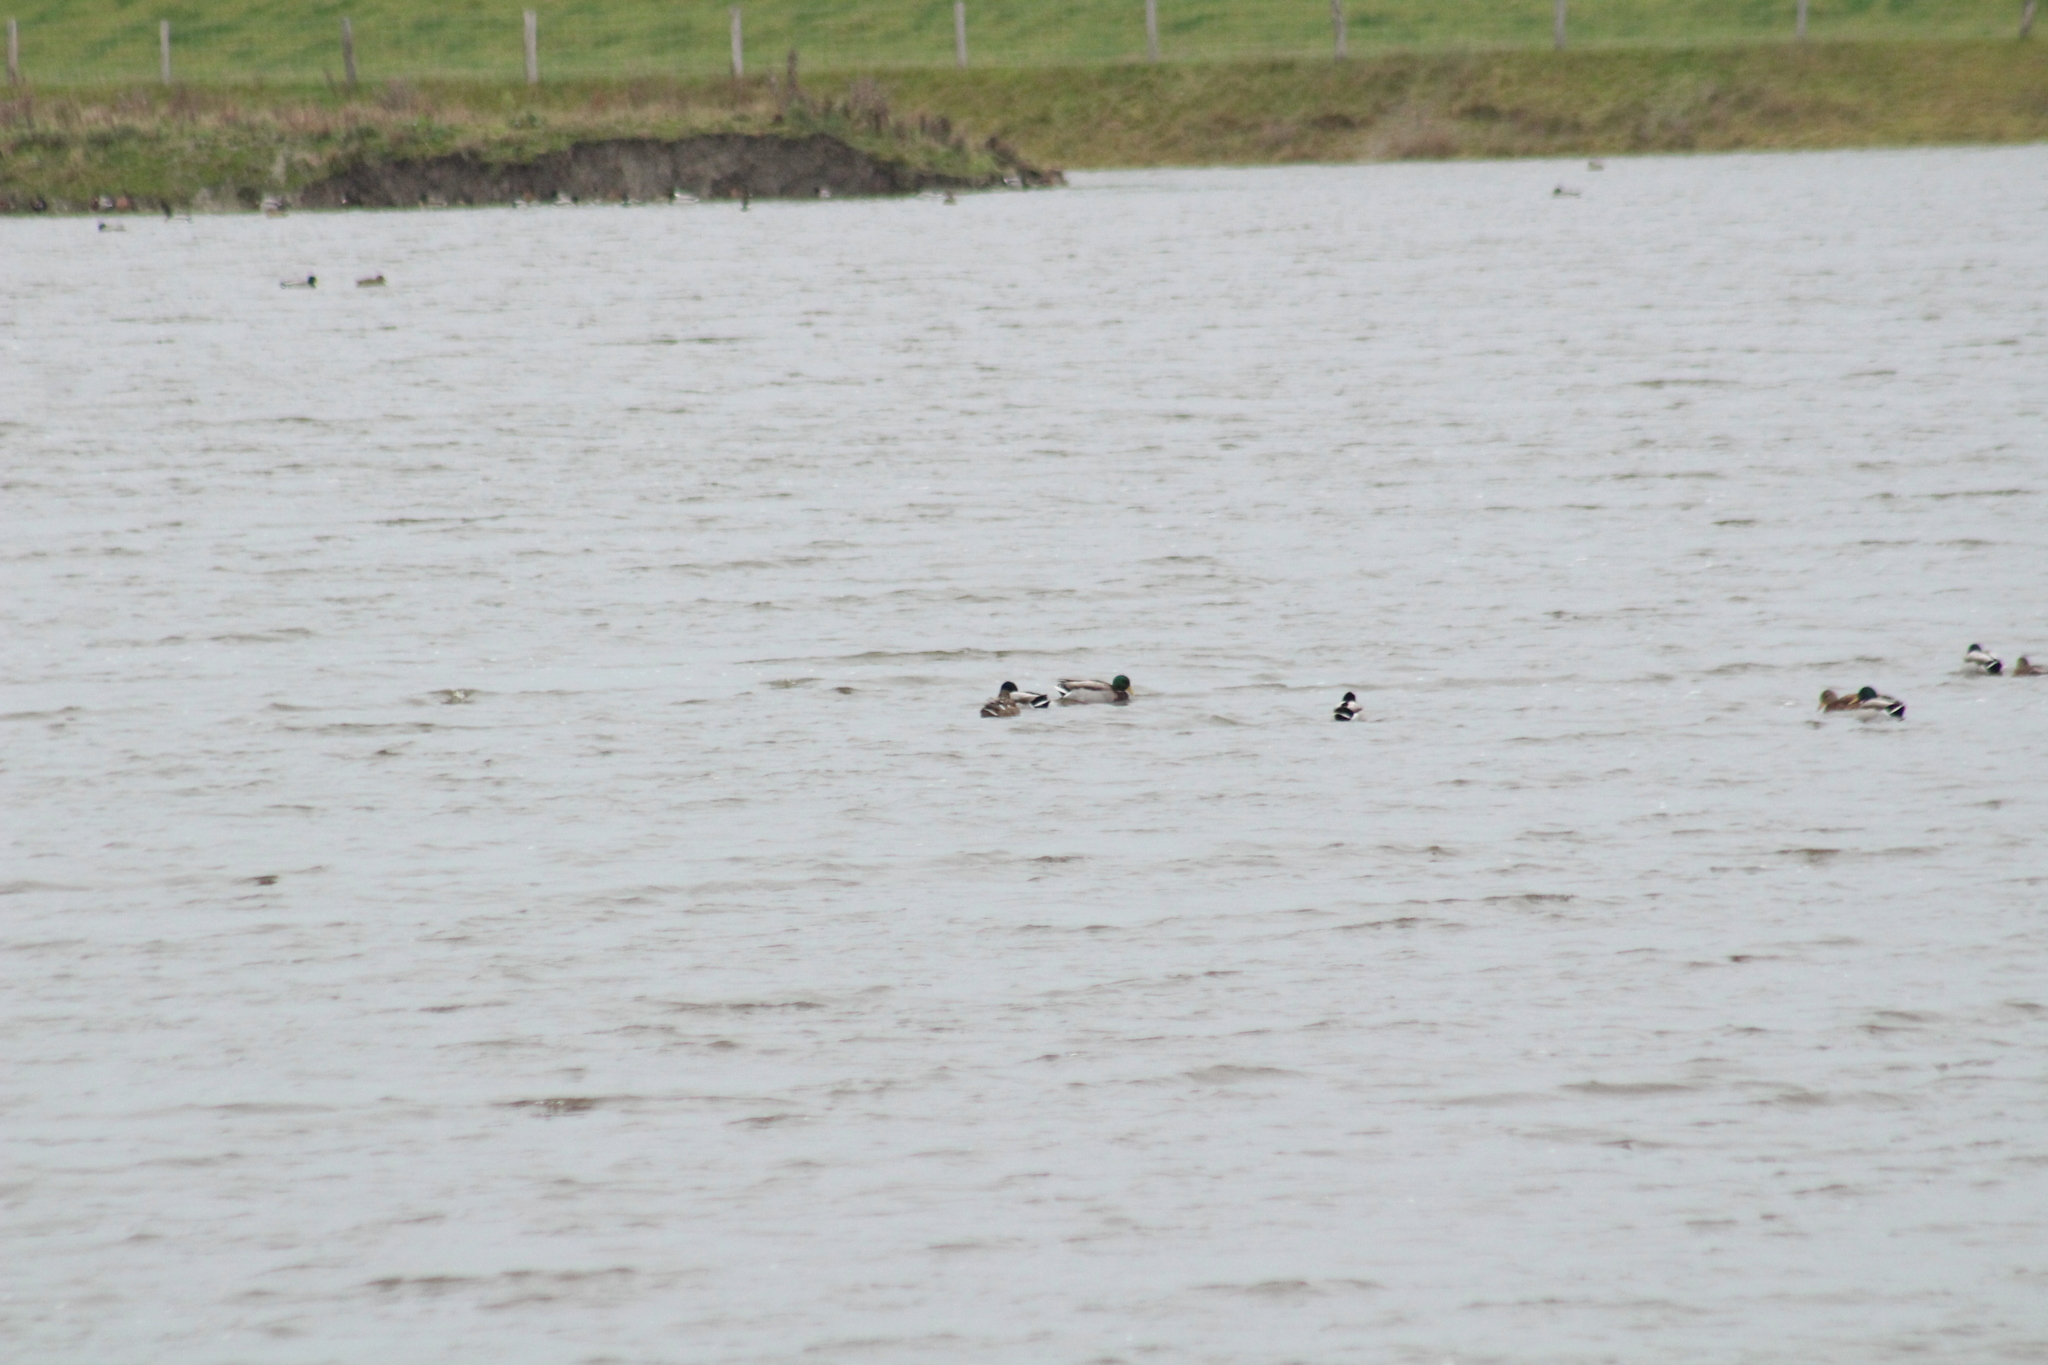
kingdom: Animalia
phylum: Chordata
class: Aves
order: Anseriformes
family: Anatidae
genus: Anas
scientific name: Anas platyrhynchos
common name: Mallard
